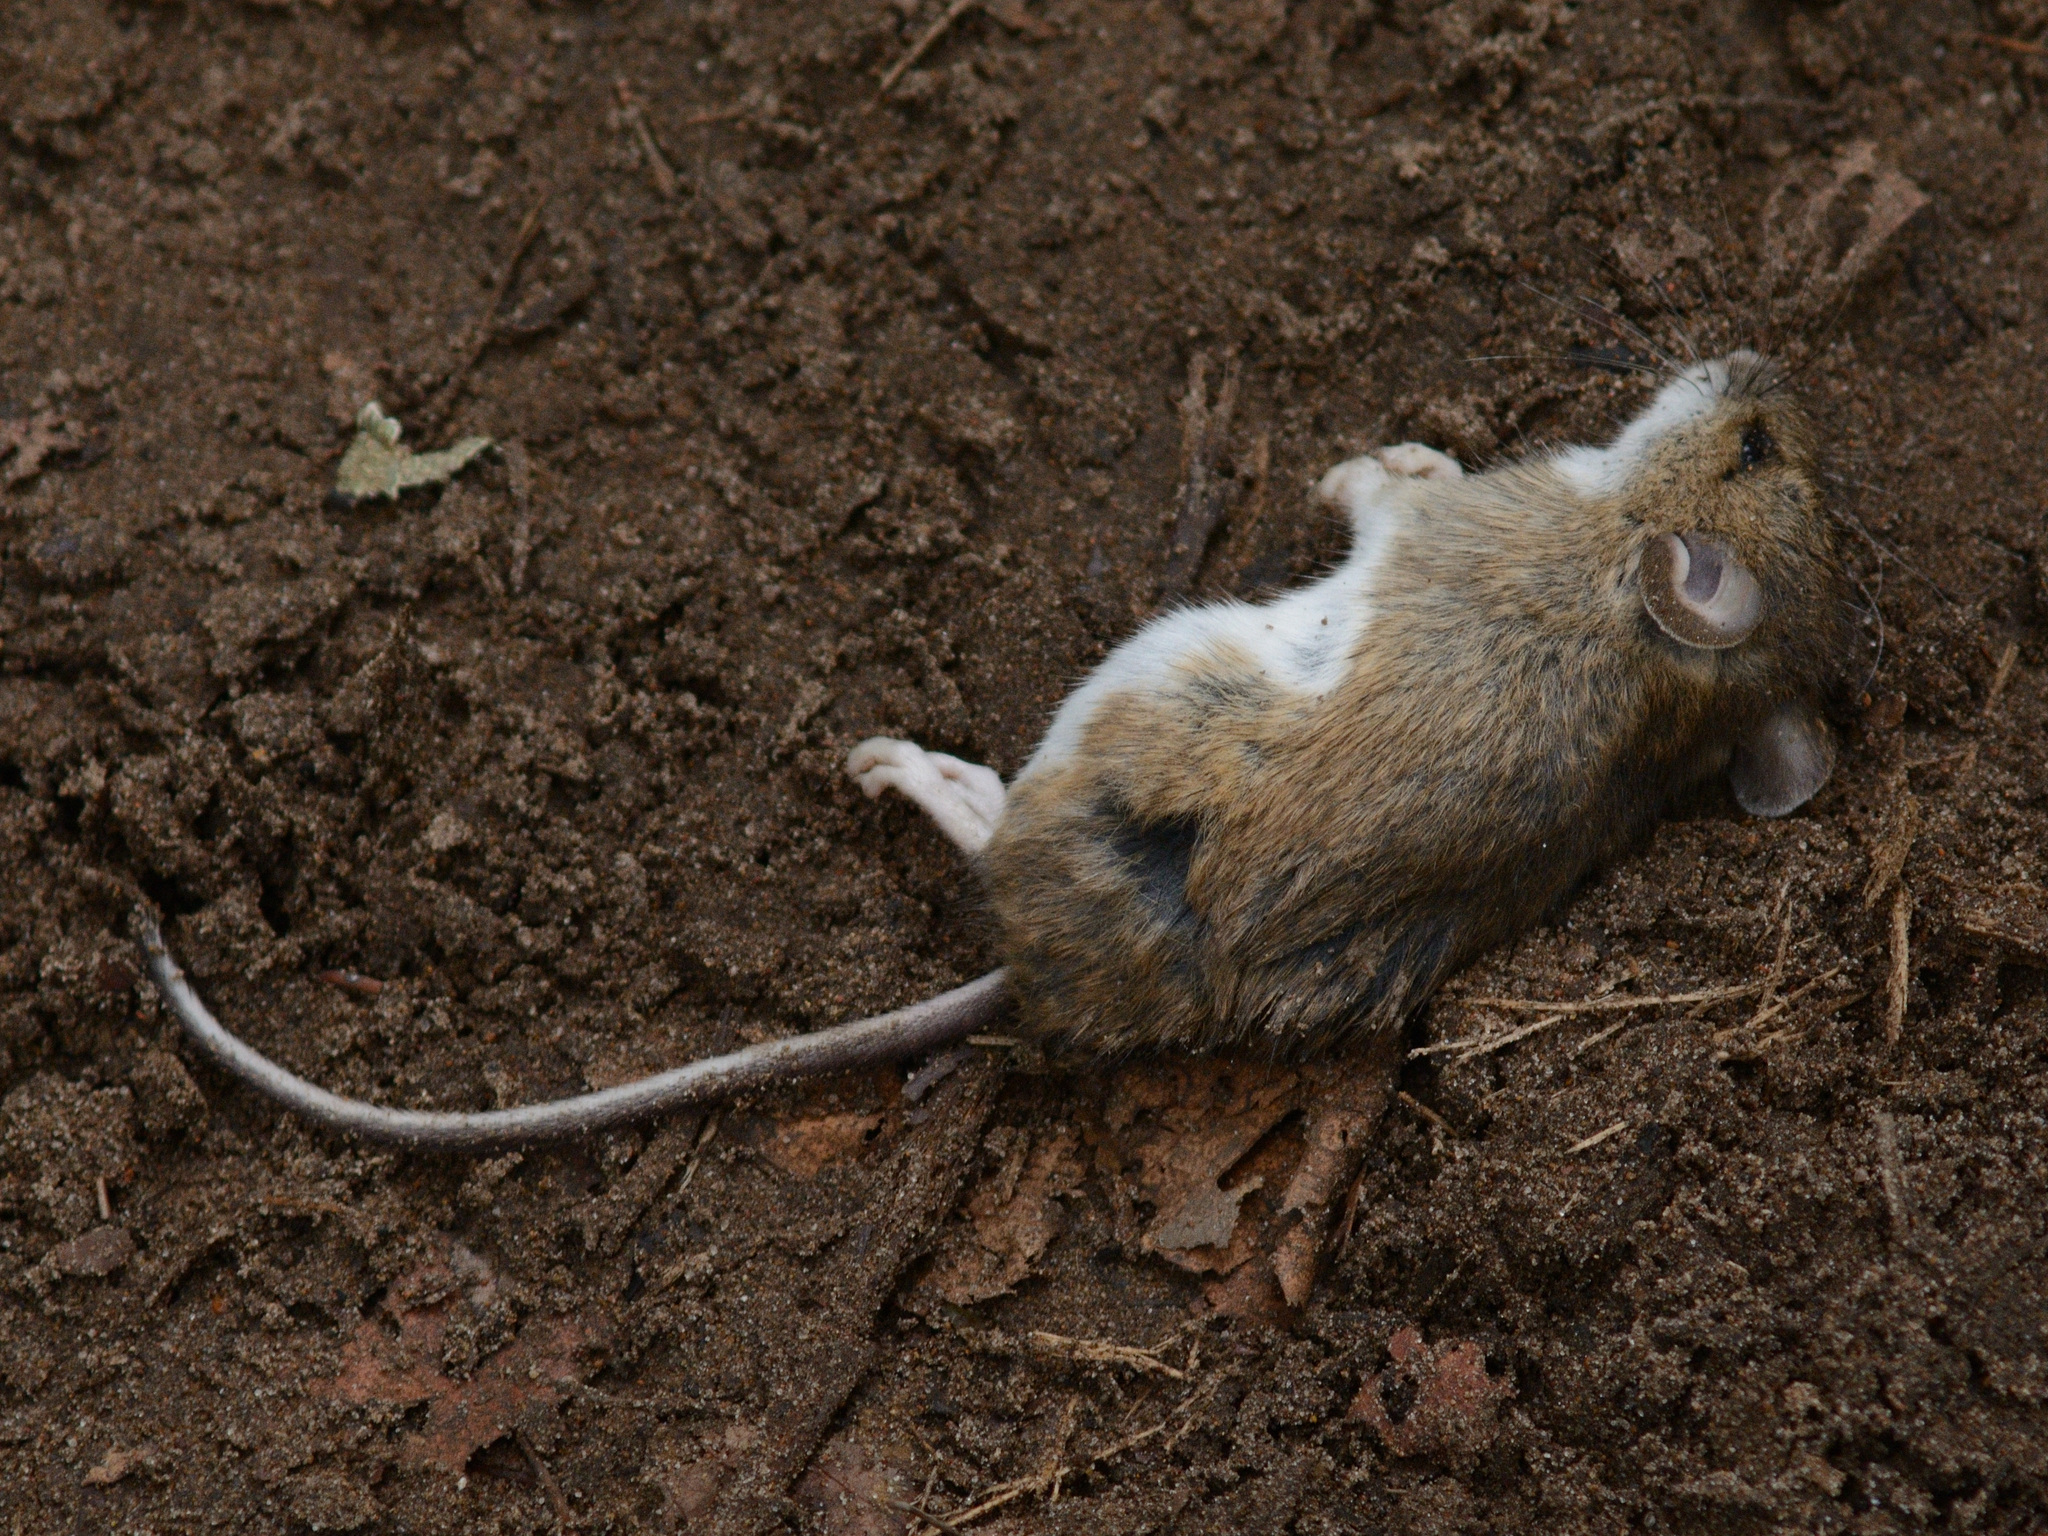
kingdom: Animalia
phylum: Chordata
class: Mammalia
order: Rodentia
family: Muridae
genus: Apodemus
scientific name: Apodemus uralensis
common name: Herb field mouse
